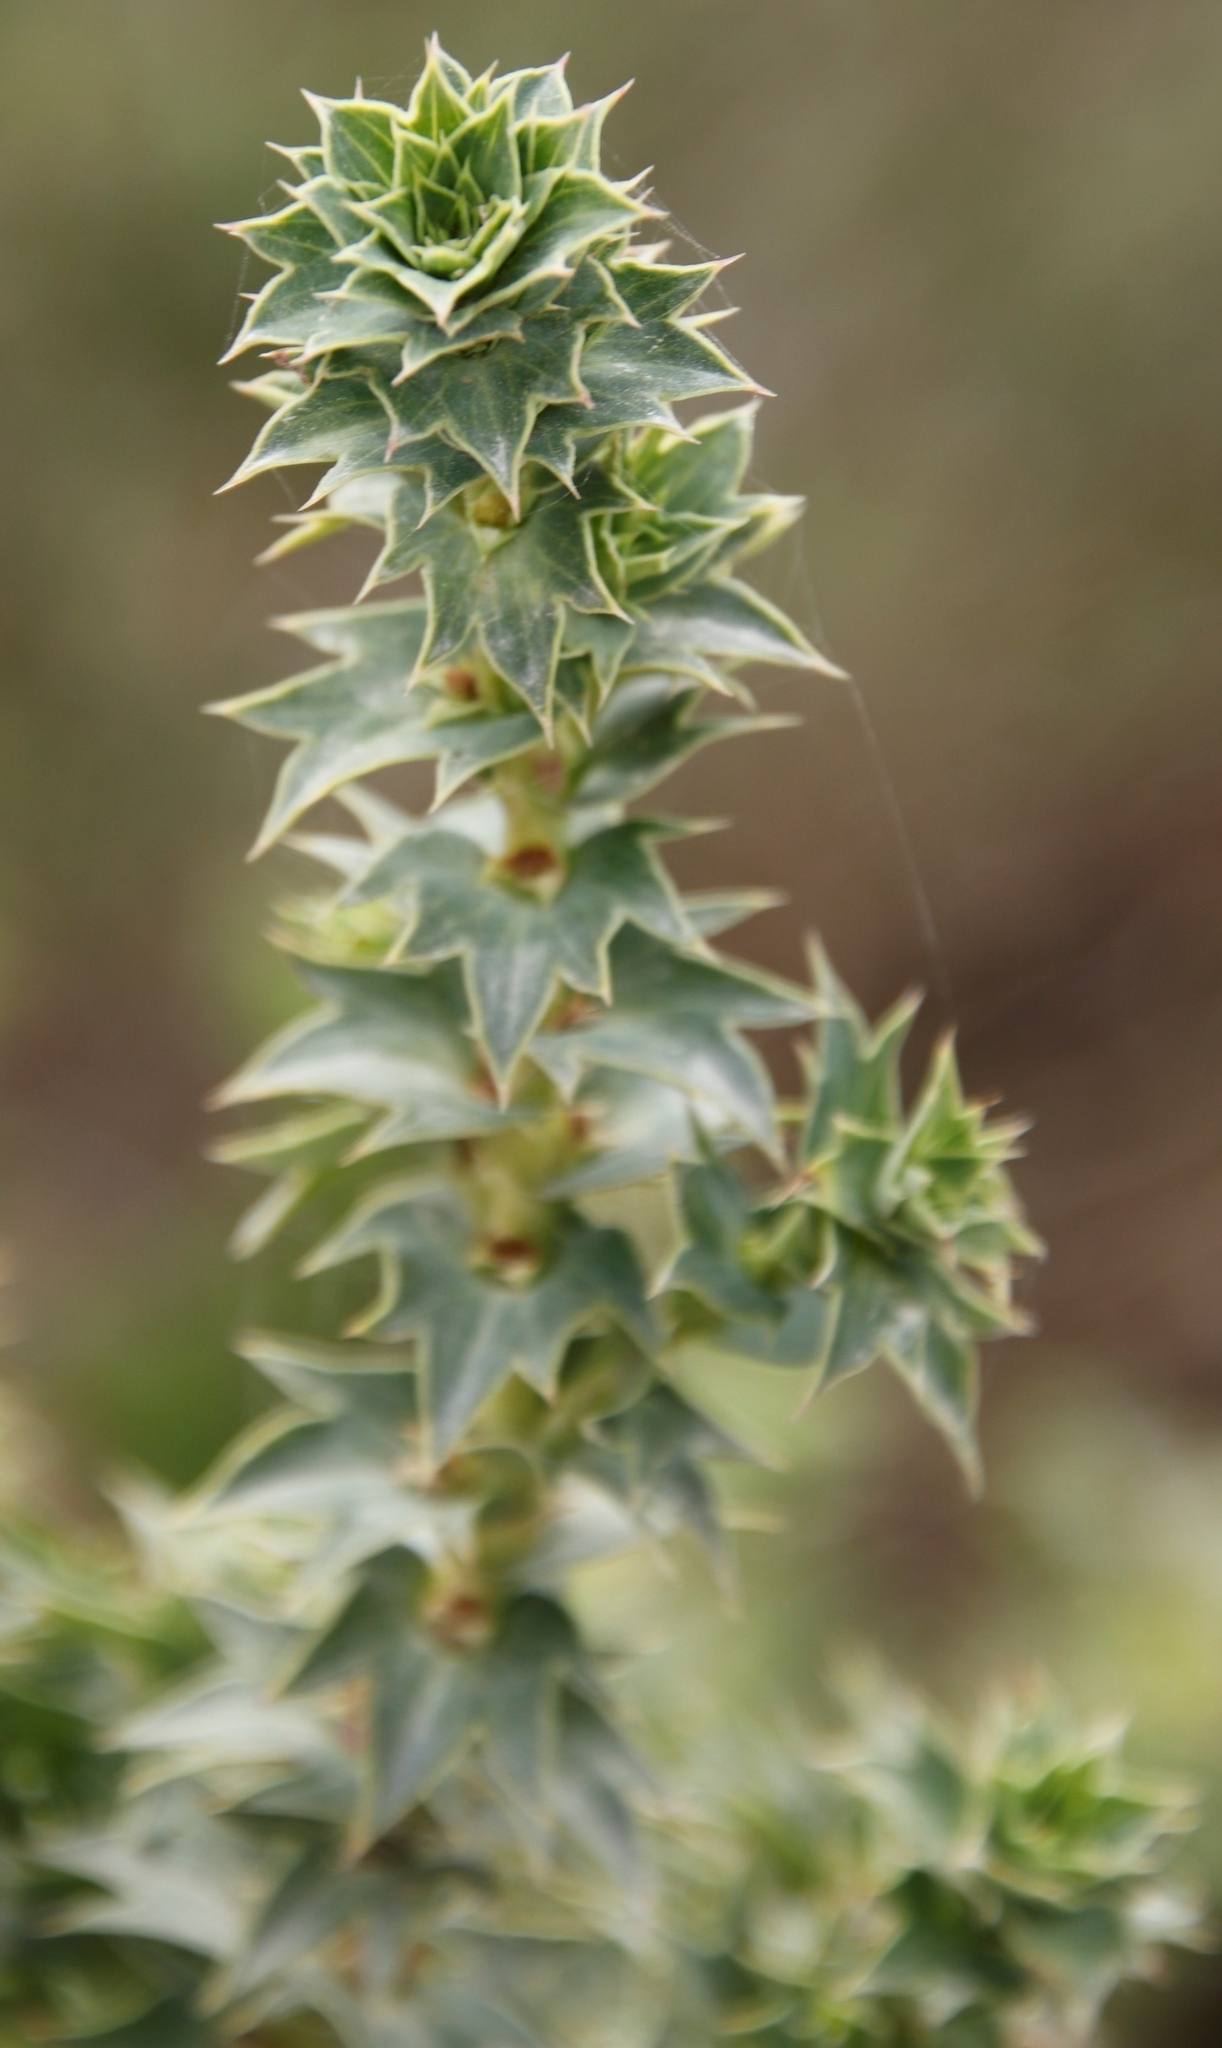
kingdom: Plantae
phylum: Tracheophyta
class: Magnoliopsida
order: Rosales
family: Rosaceae
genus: Cliffortia
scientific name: Cliffortia ilicifolia
